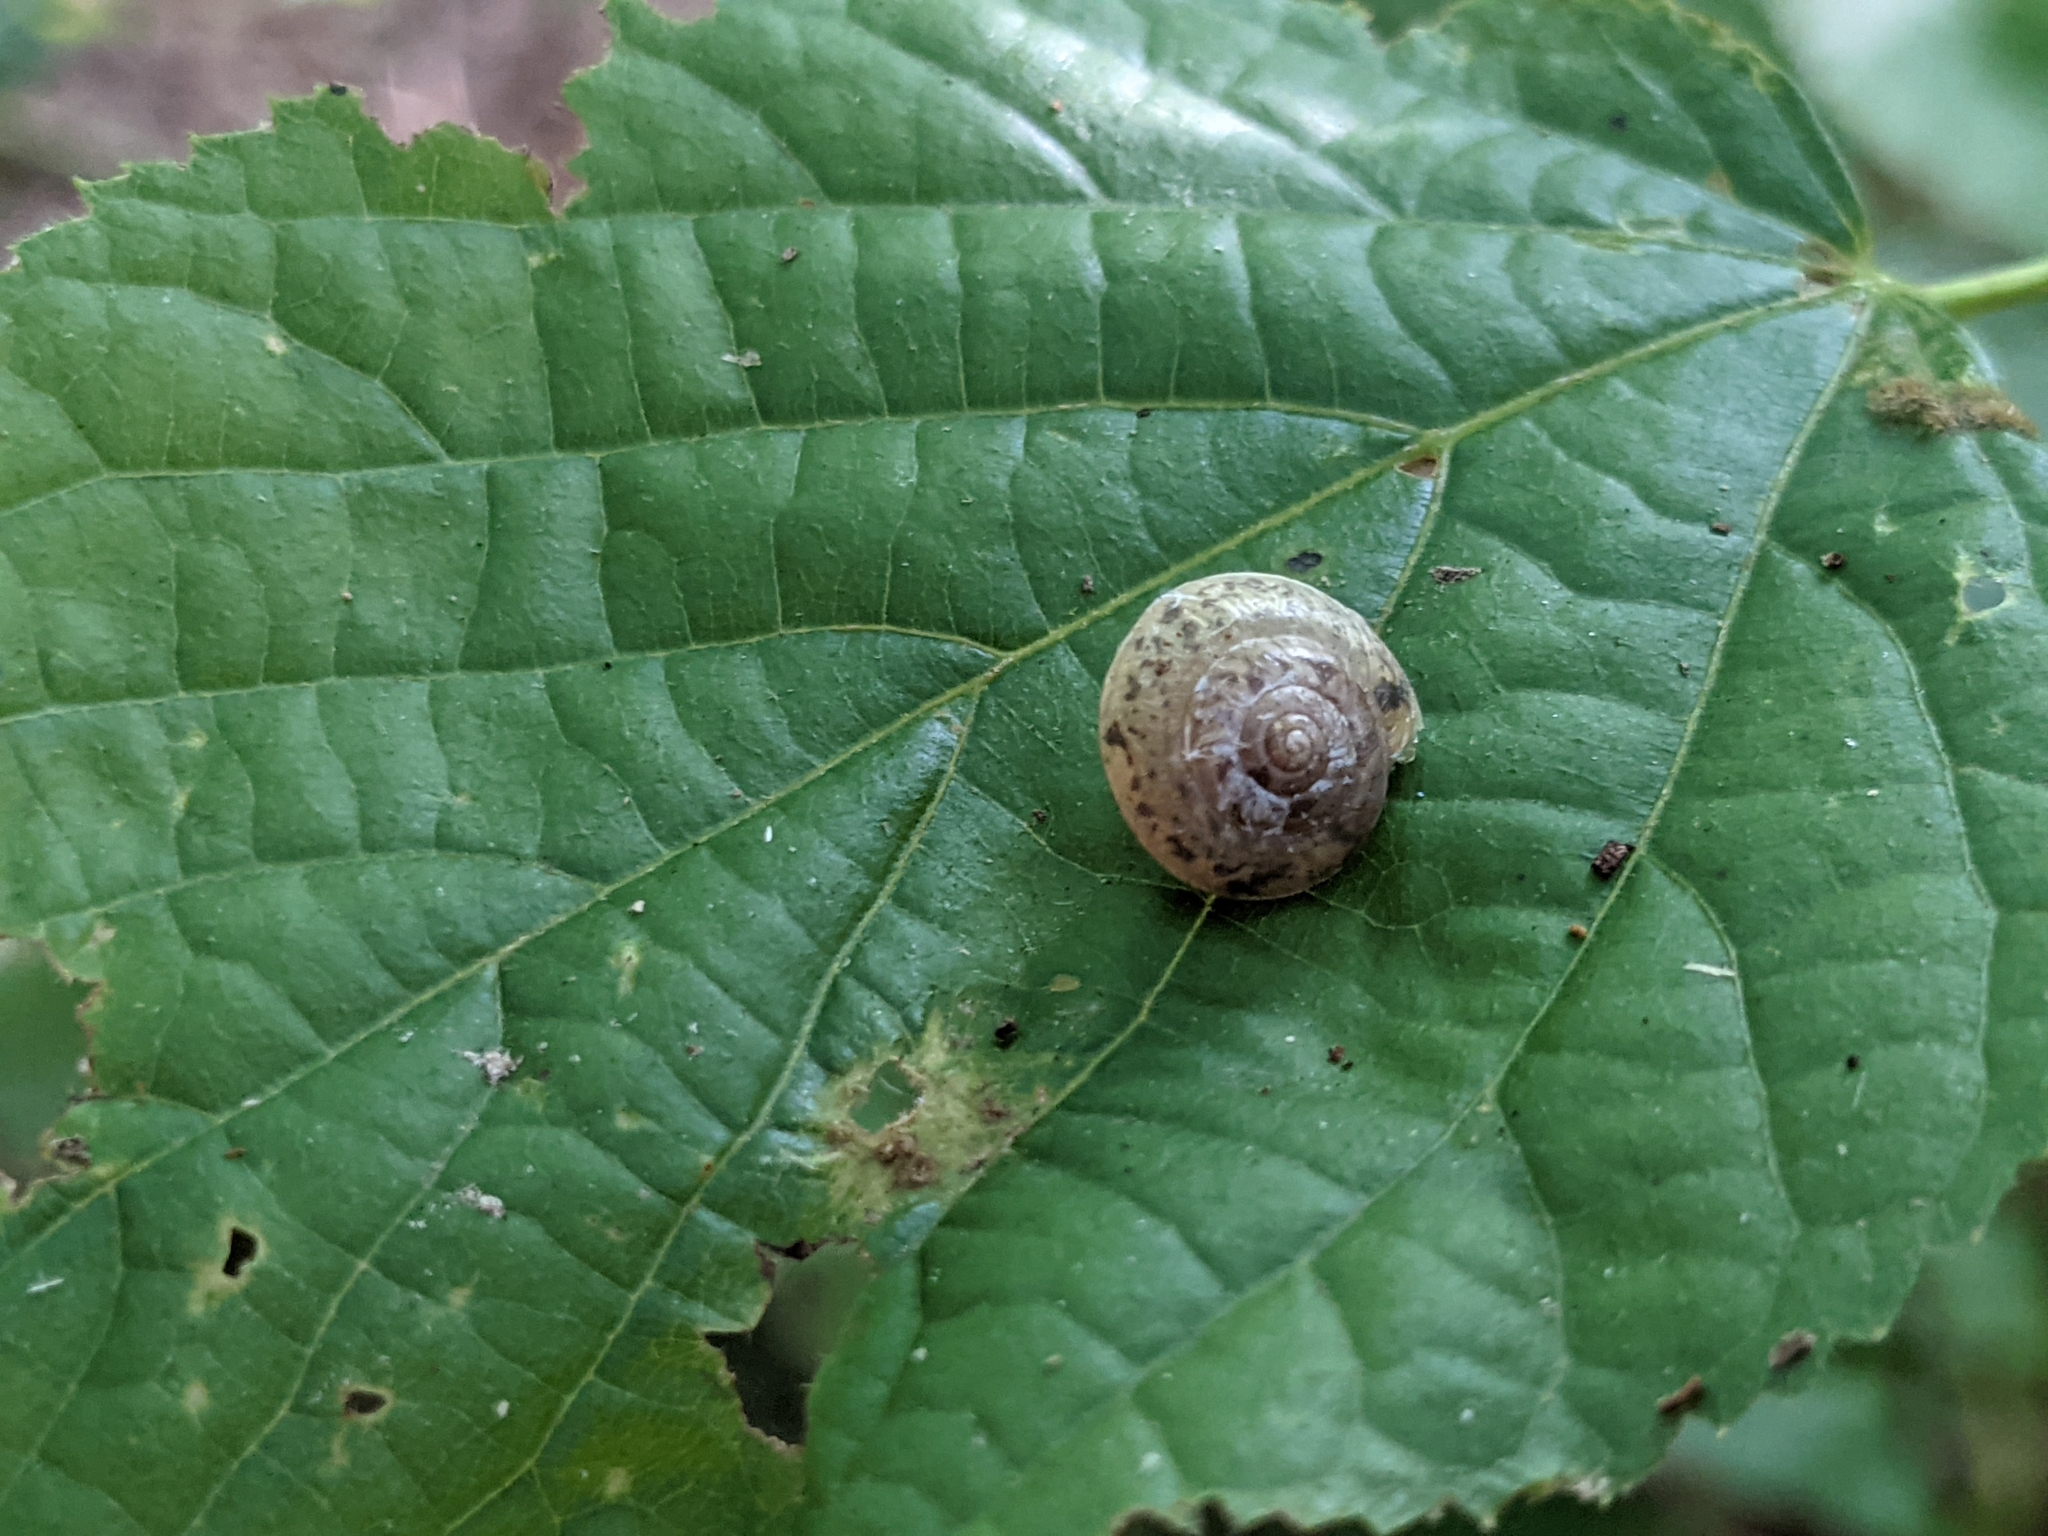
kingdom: Animalia
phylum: Mollusca
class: Gastropoda
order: Stylommatophora
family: Hygromiidae
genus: Hygromia
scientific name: Hygromia cinctella
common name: Girdled snail
